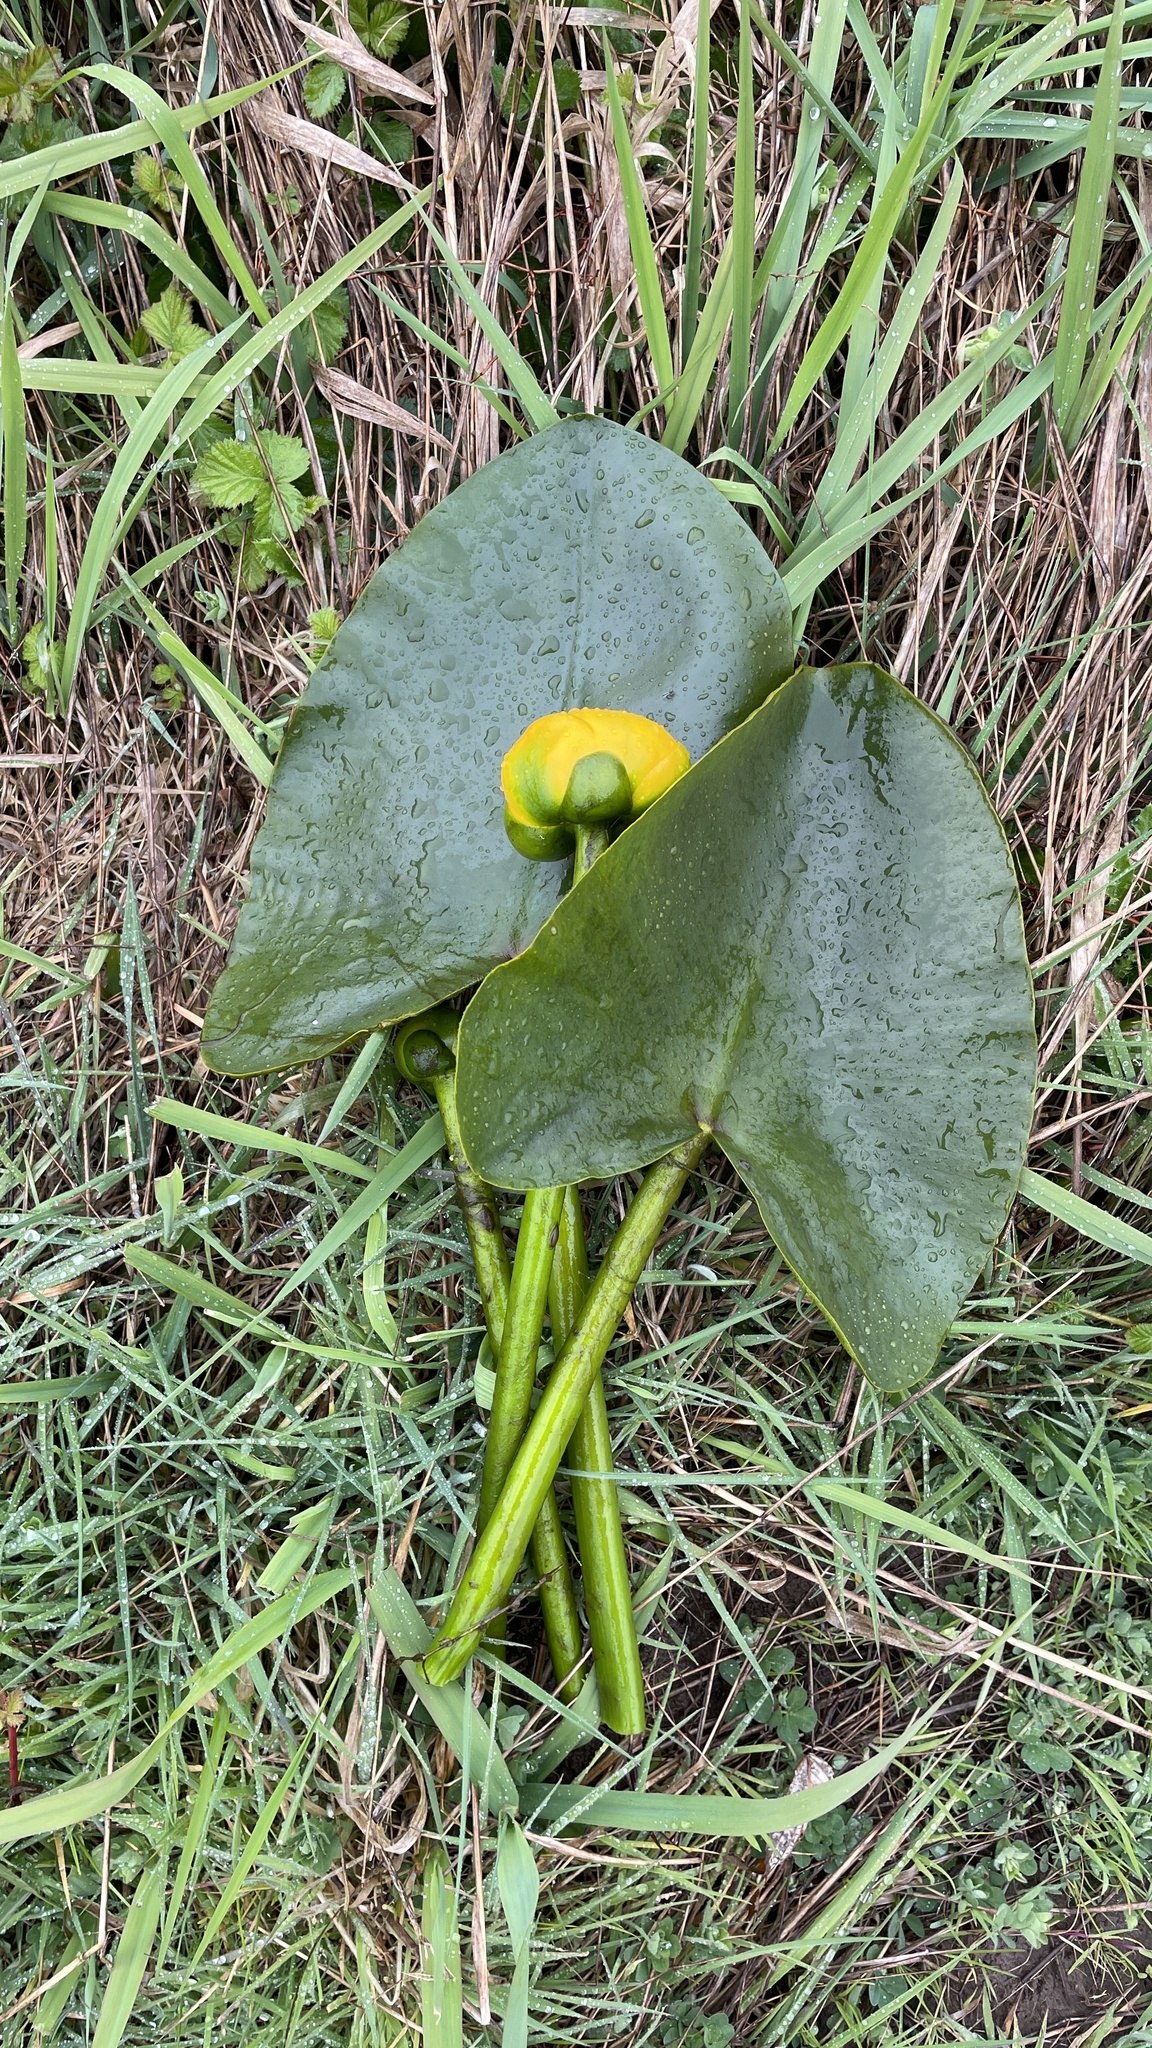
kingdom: Plantae
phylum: Tracheophyta
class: Magnoliopsida
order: Nymphaeales
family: Nymphaeaceae
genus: Nuphar
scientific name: Nuphar polysepala
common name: Rocky mountain cow-lily
